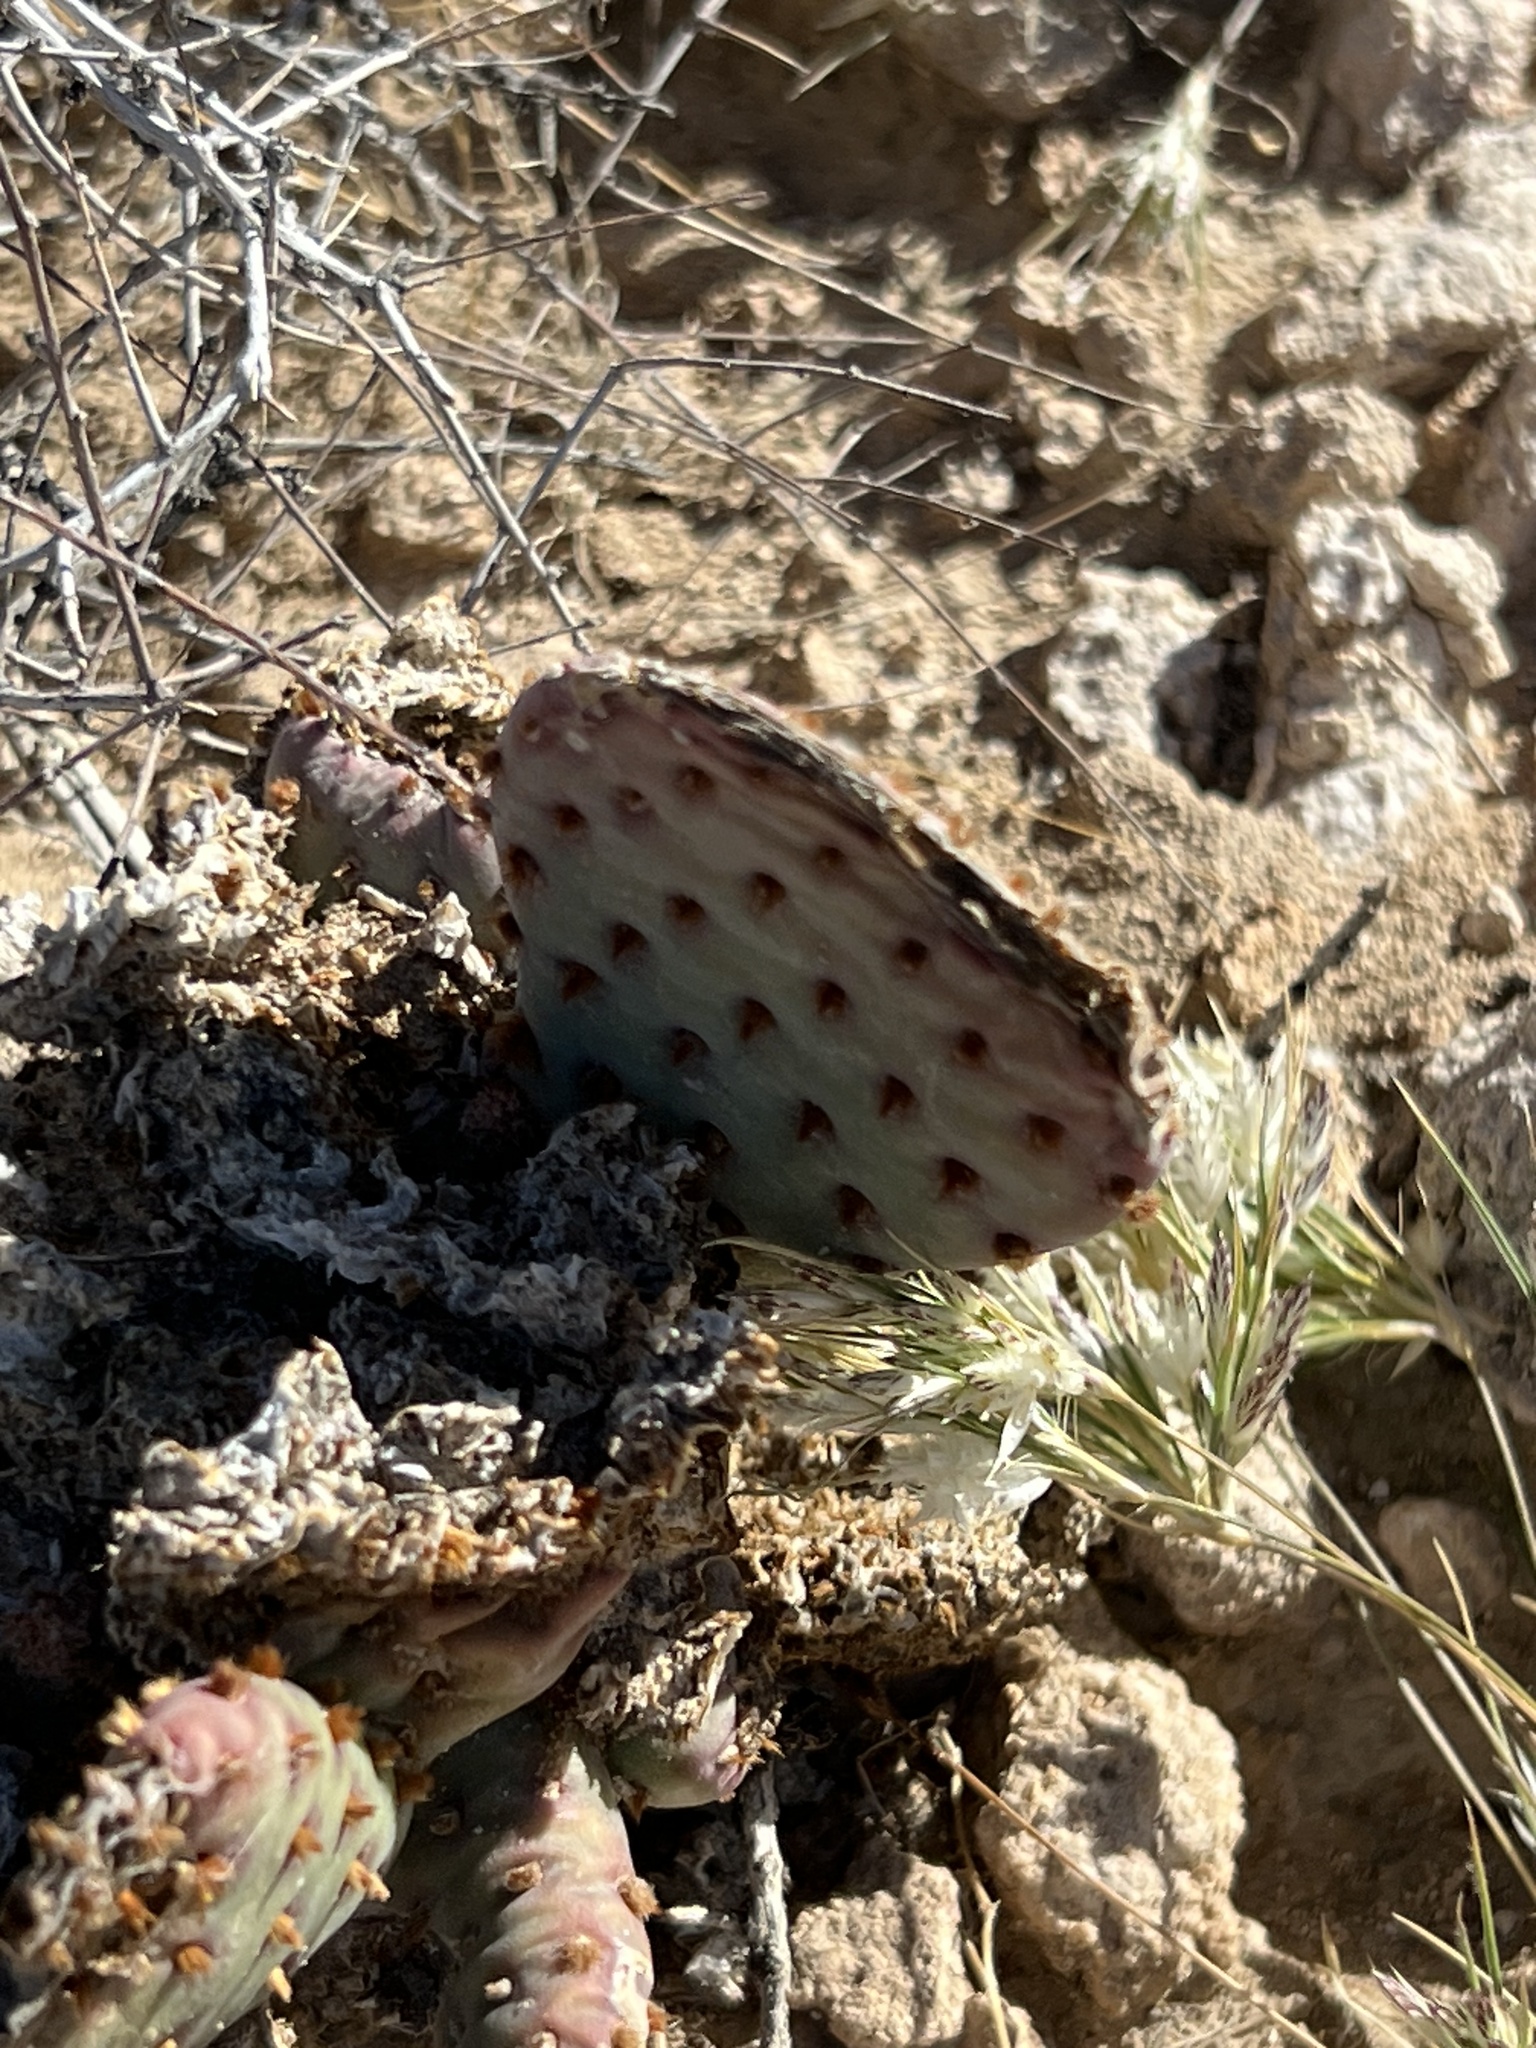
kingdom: Plantae
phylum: Tracheophyta
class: Magnoliopsida
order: Caryophyllales
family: Cactaceae
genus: Opuntia
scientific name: Opuntia basilaris
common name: Beavertail prickly-pear
